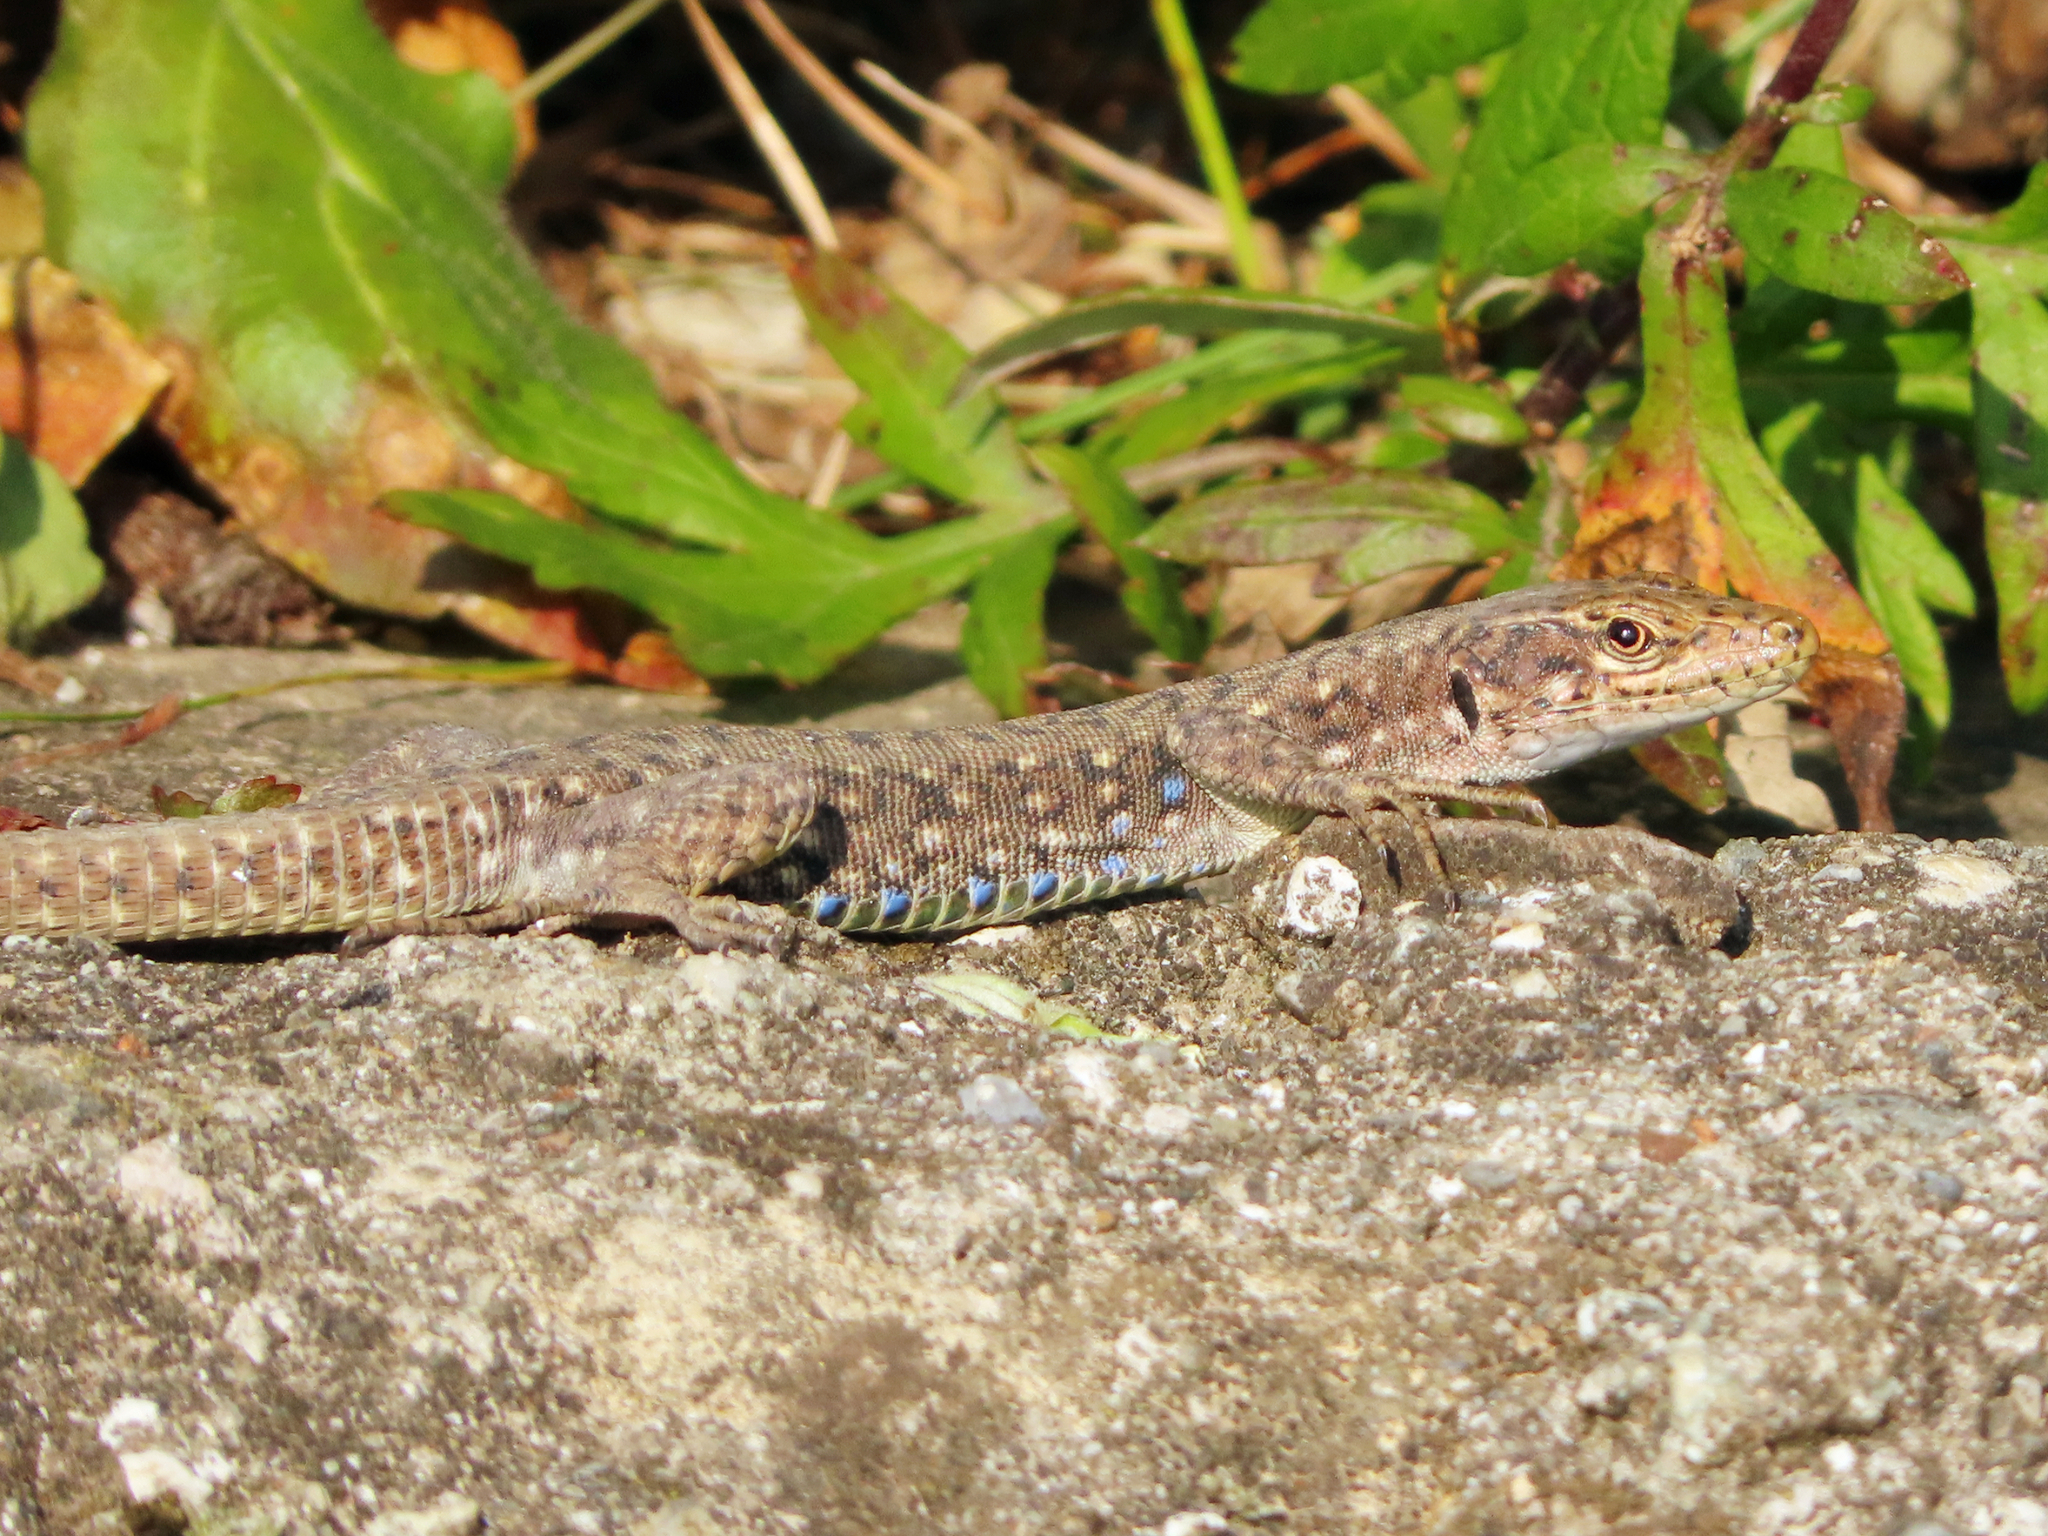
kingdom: Animalia
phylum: Chordata
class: Squamata
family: Lacertidae
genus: Darevskia
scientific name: Darevskia rudis
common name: Spiny-tailed lizard
